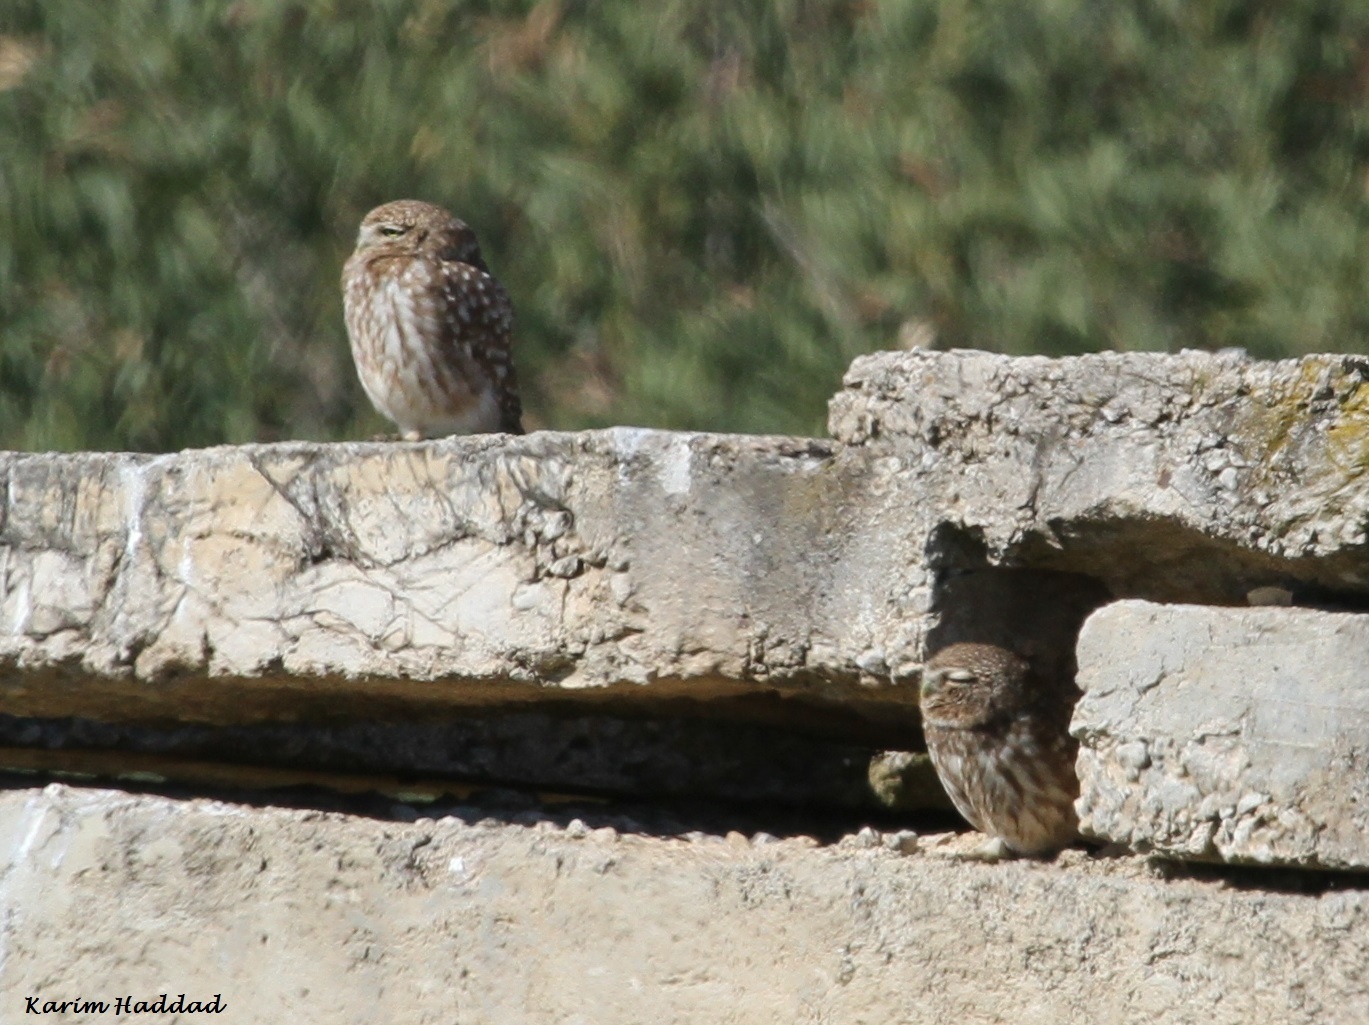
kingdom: Animalia
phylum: Chordata
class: Aves
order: Strigiformes
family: Strigidae
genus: Athene
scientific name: Athene noctua
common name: Little owl
